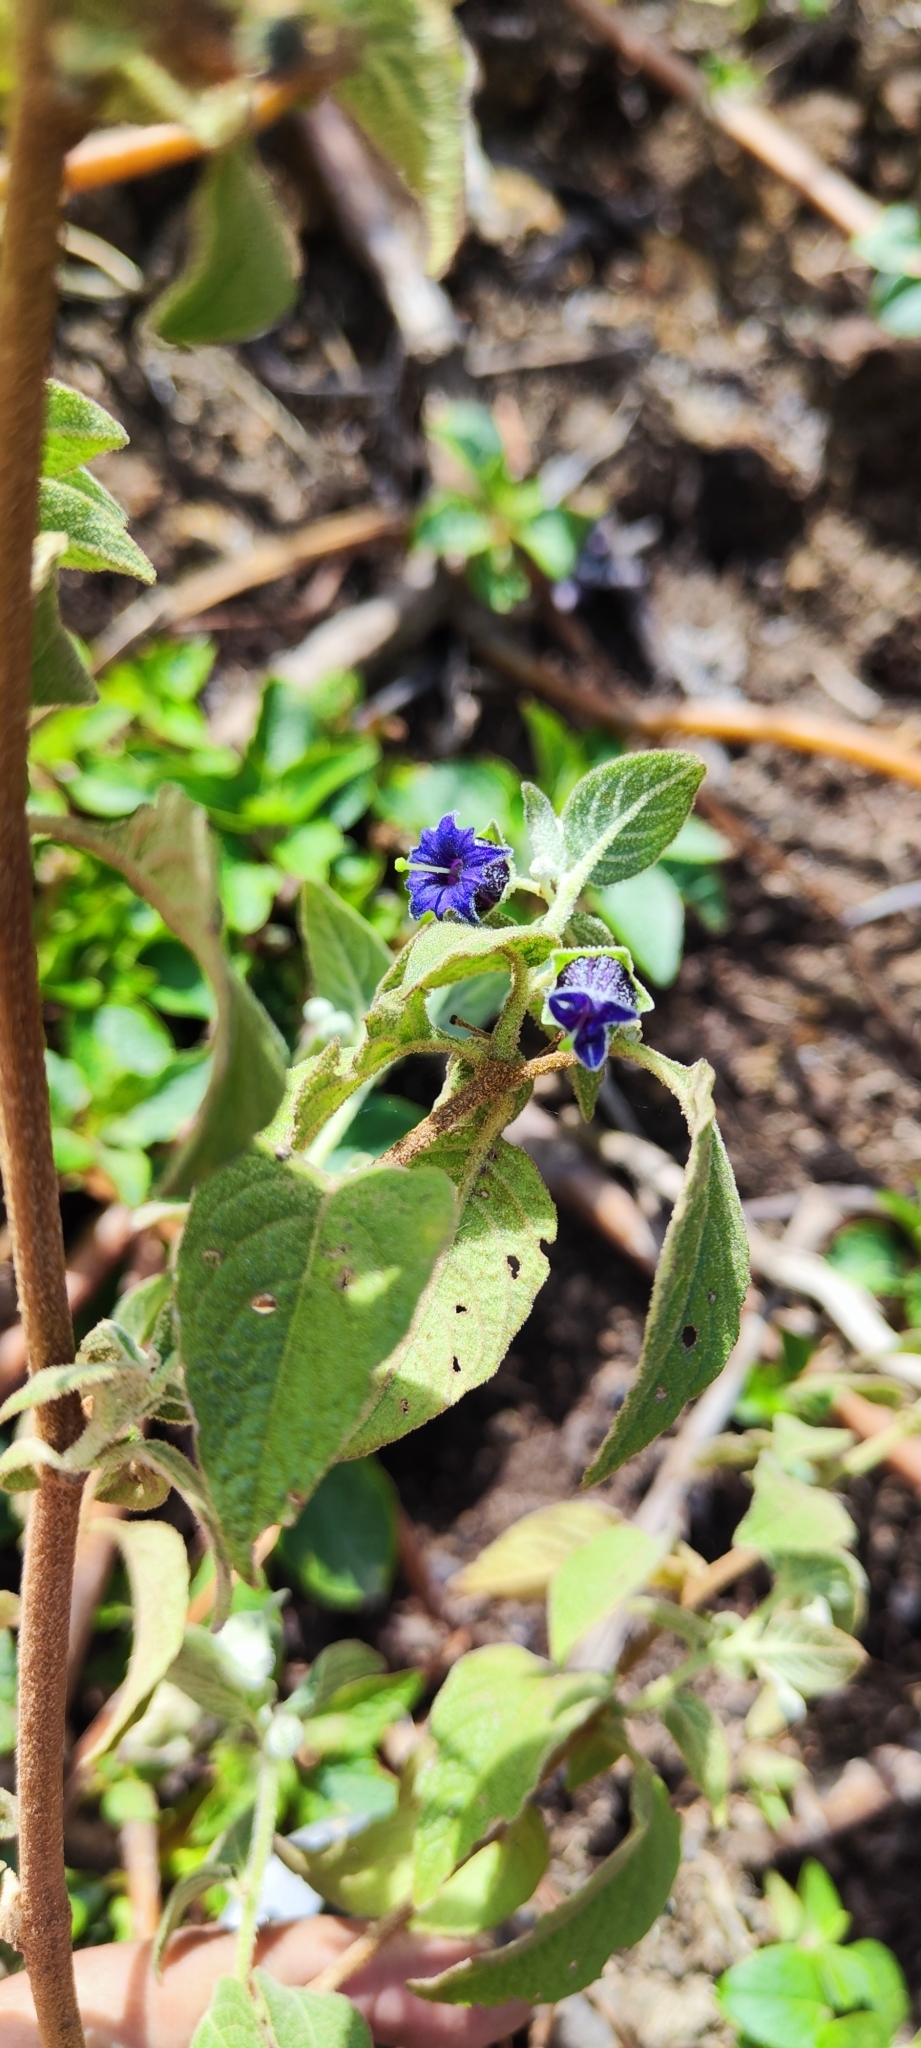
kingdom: Plantae
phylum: Tracheophyta
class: Magnoliopsida
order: Solanales
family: Solanaceae
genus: Jaltomata
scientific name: Jaltomata yacheri
